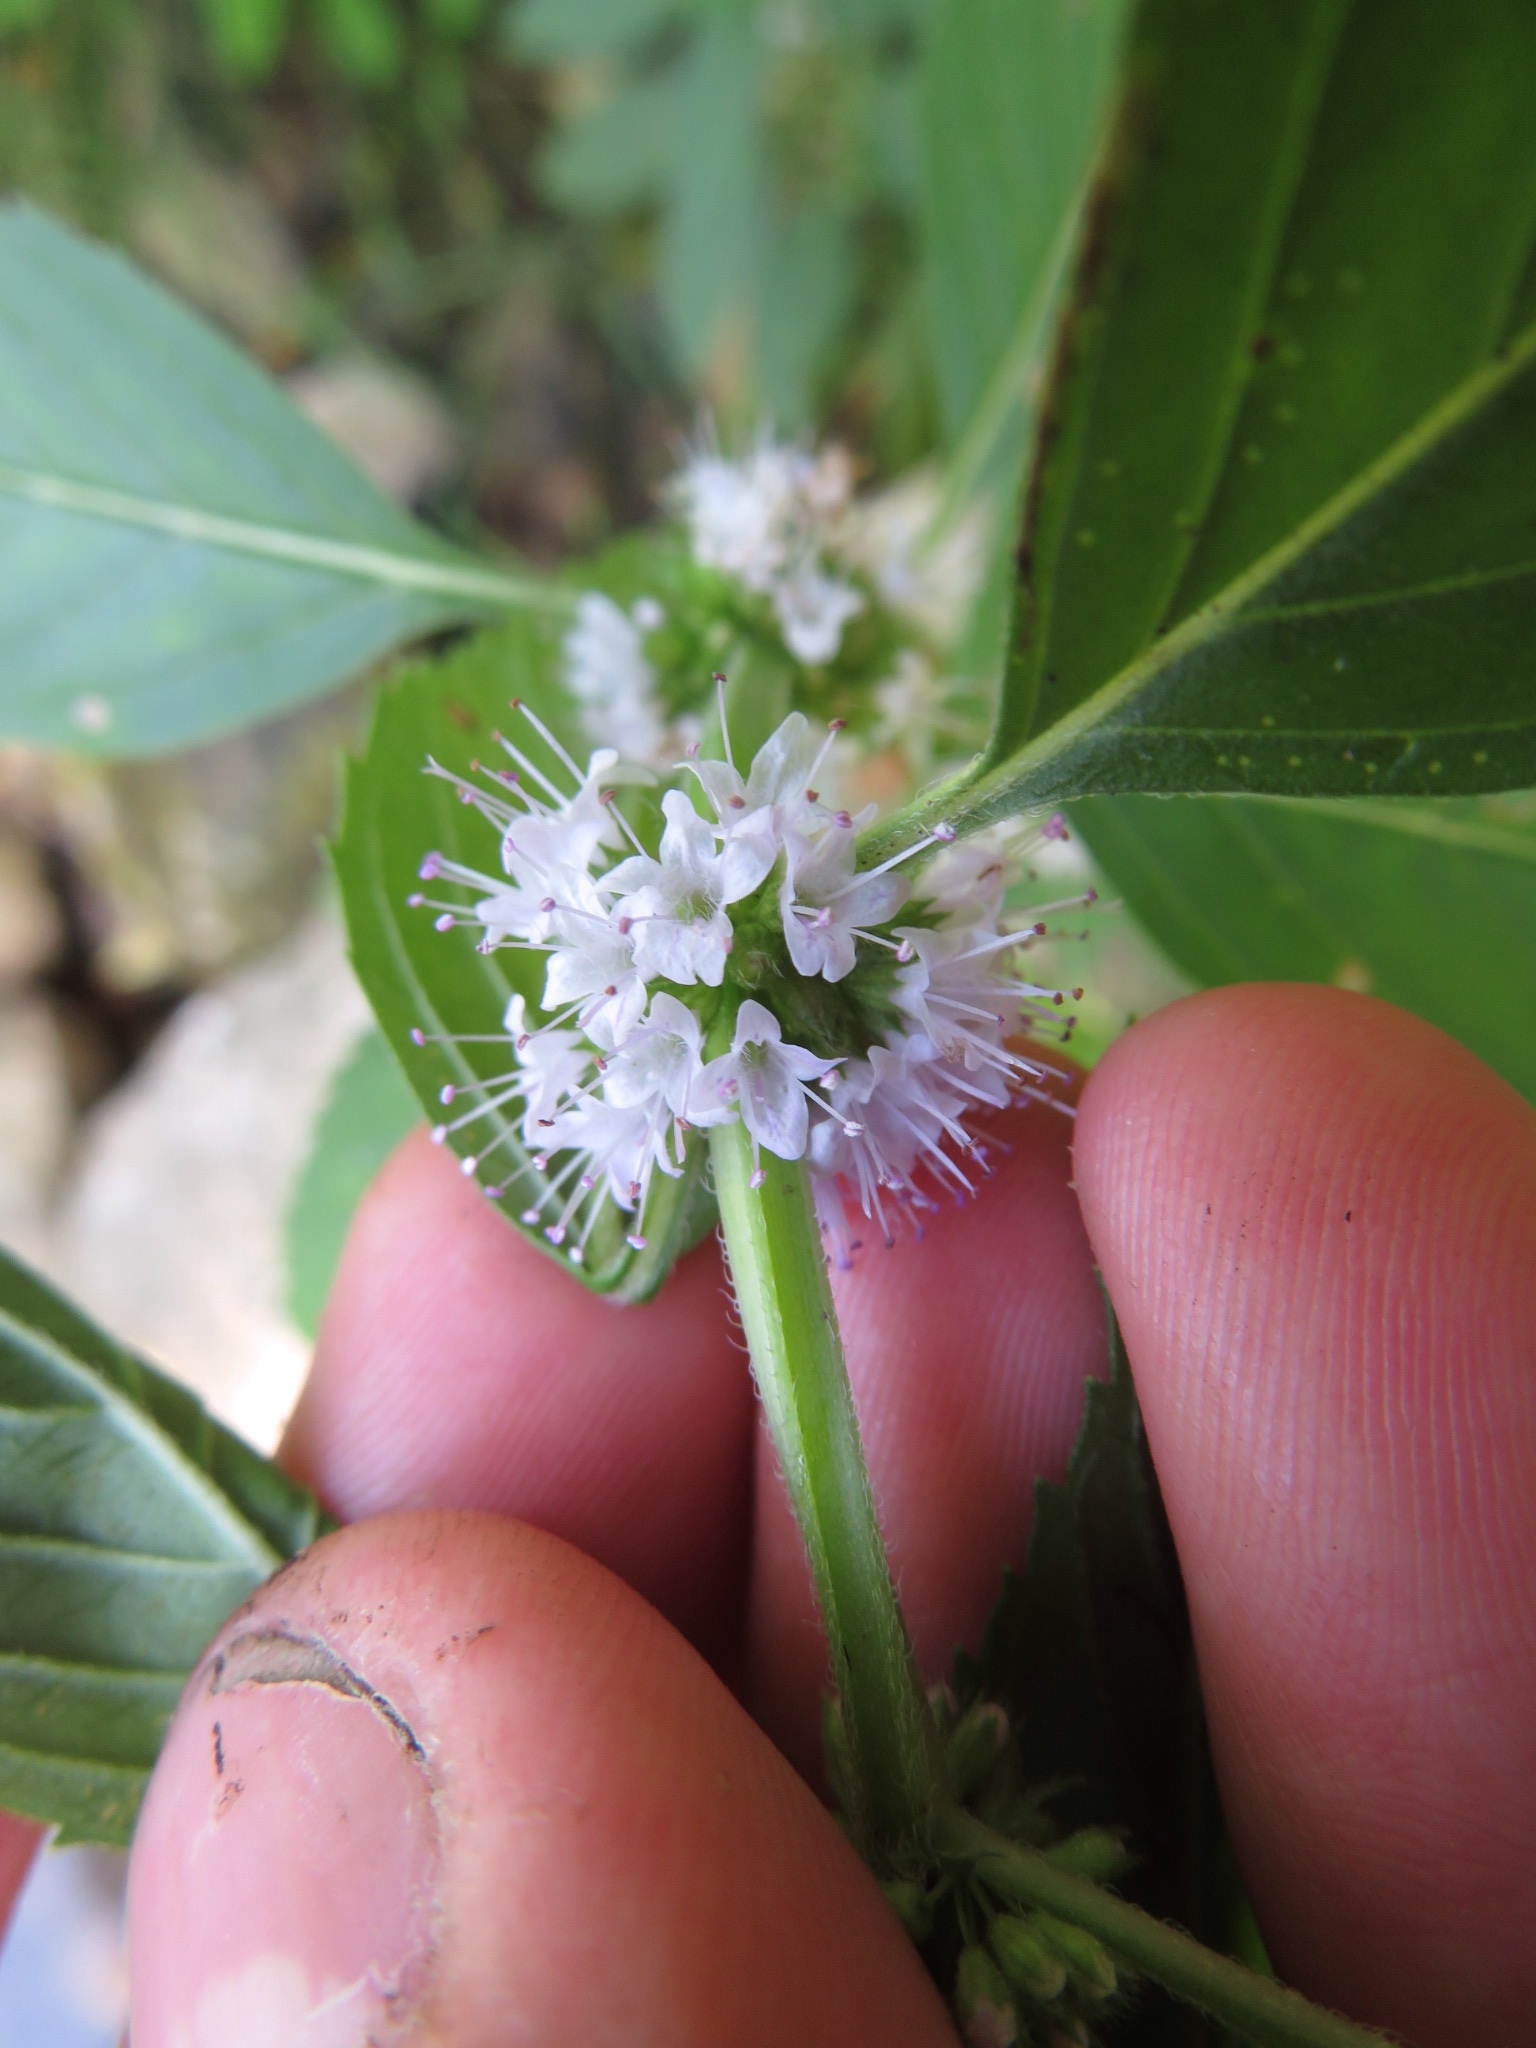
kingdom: Plantae
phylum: Tracheophyta
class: Magnoliopsida
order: Lamiales
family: Lamiaceae
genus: Mentha
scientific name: Mentha canadensis
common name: American corn mint
